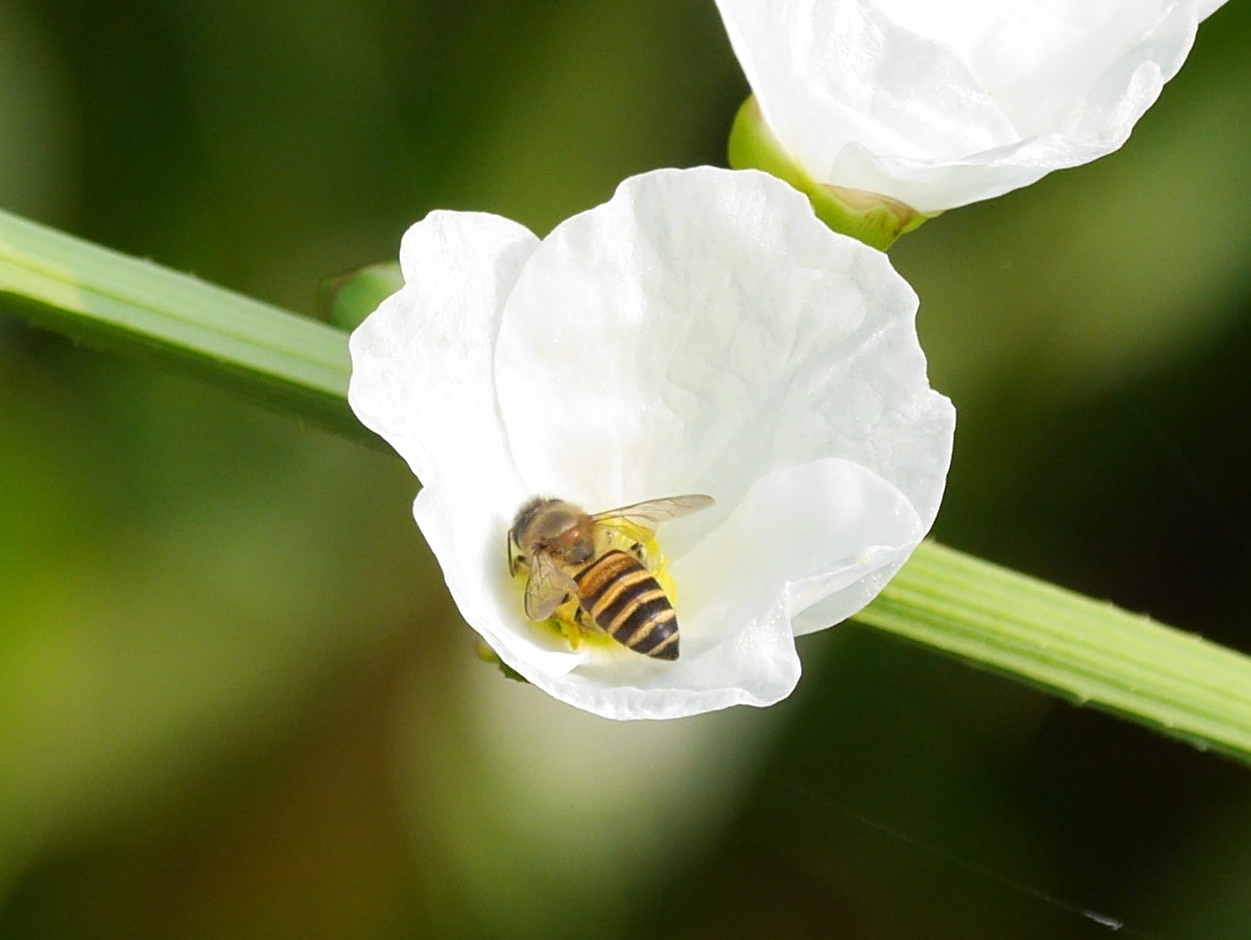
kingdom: Animalia
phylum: Arthropoda
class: Insecta
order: Hymenoptera
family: Apidae
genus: Apis
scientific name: Apis cerana
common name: Honey bee
